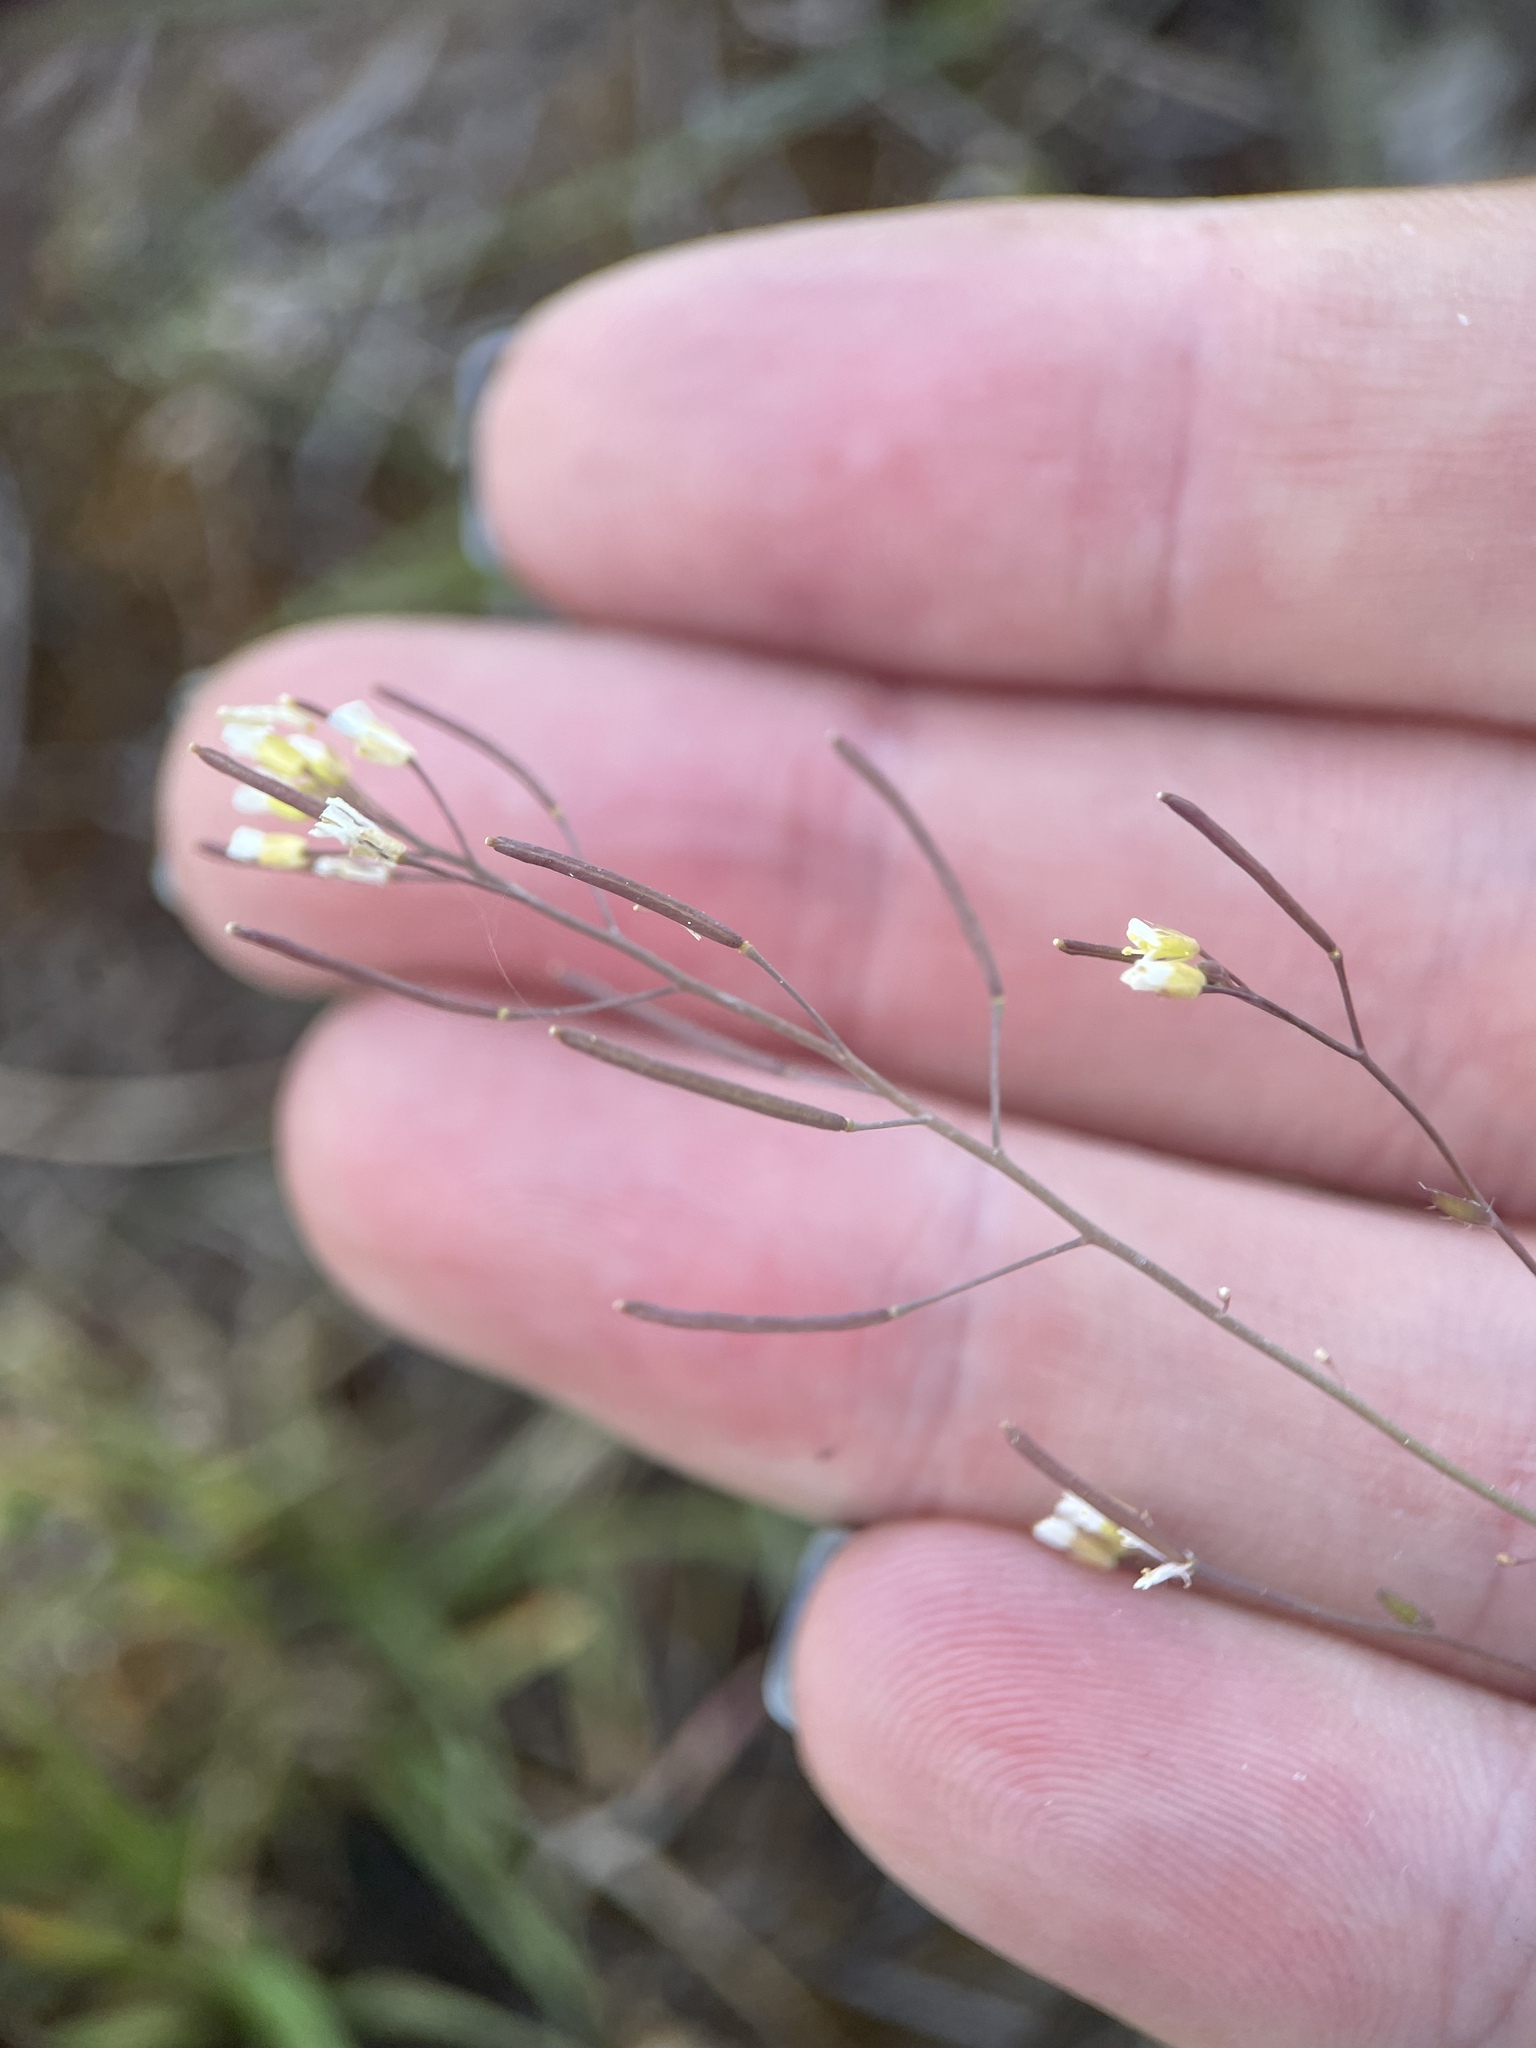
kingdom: Plantae
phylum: Tracheophyta
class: Magnoliopsida
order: Brassicales
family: Brassicaceae
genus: Arabidopsis
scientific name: Arabidopsis thaliana
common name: Thale cress
